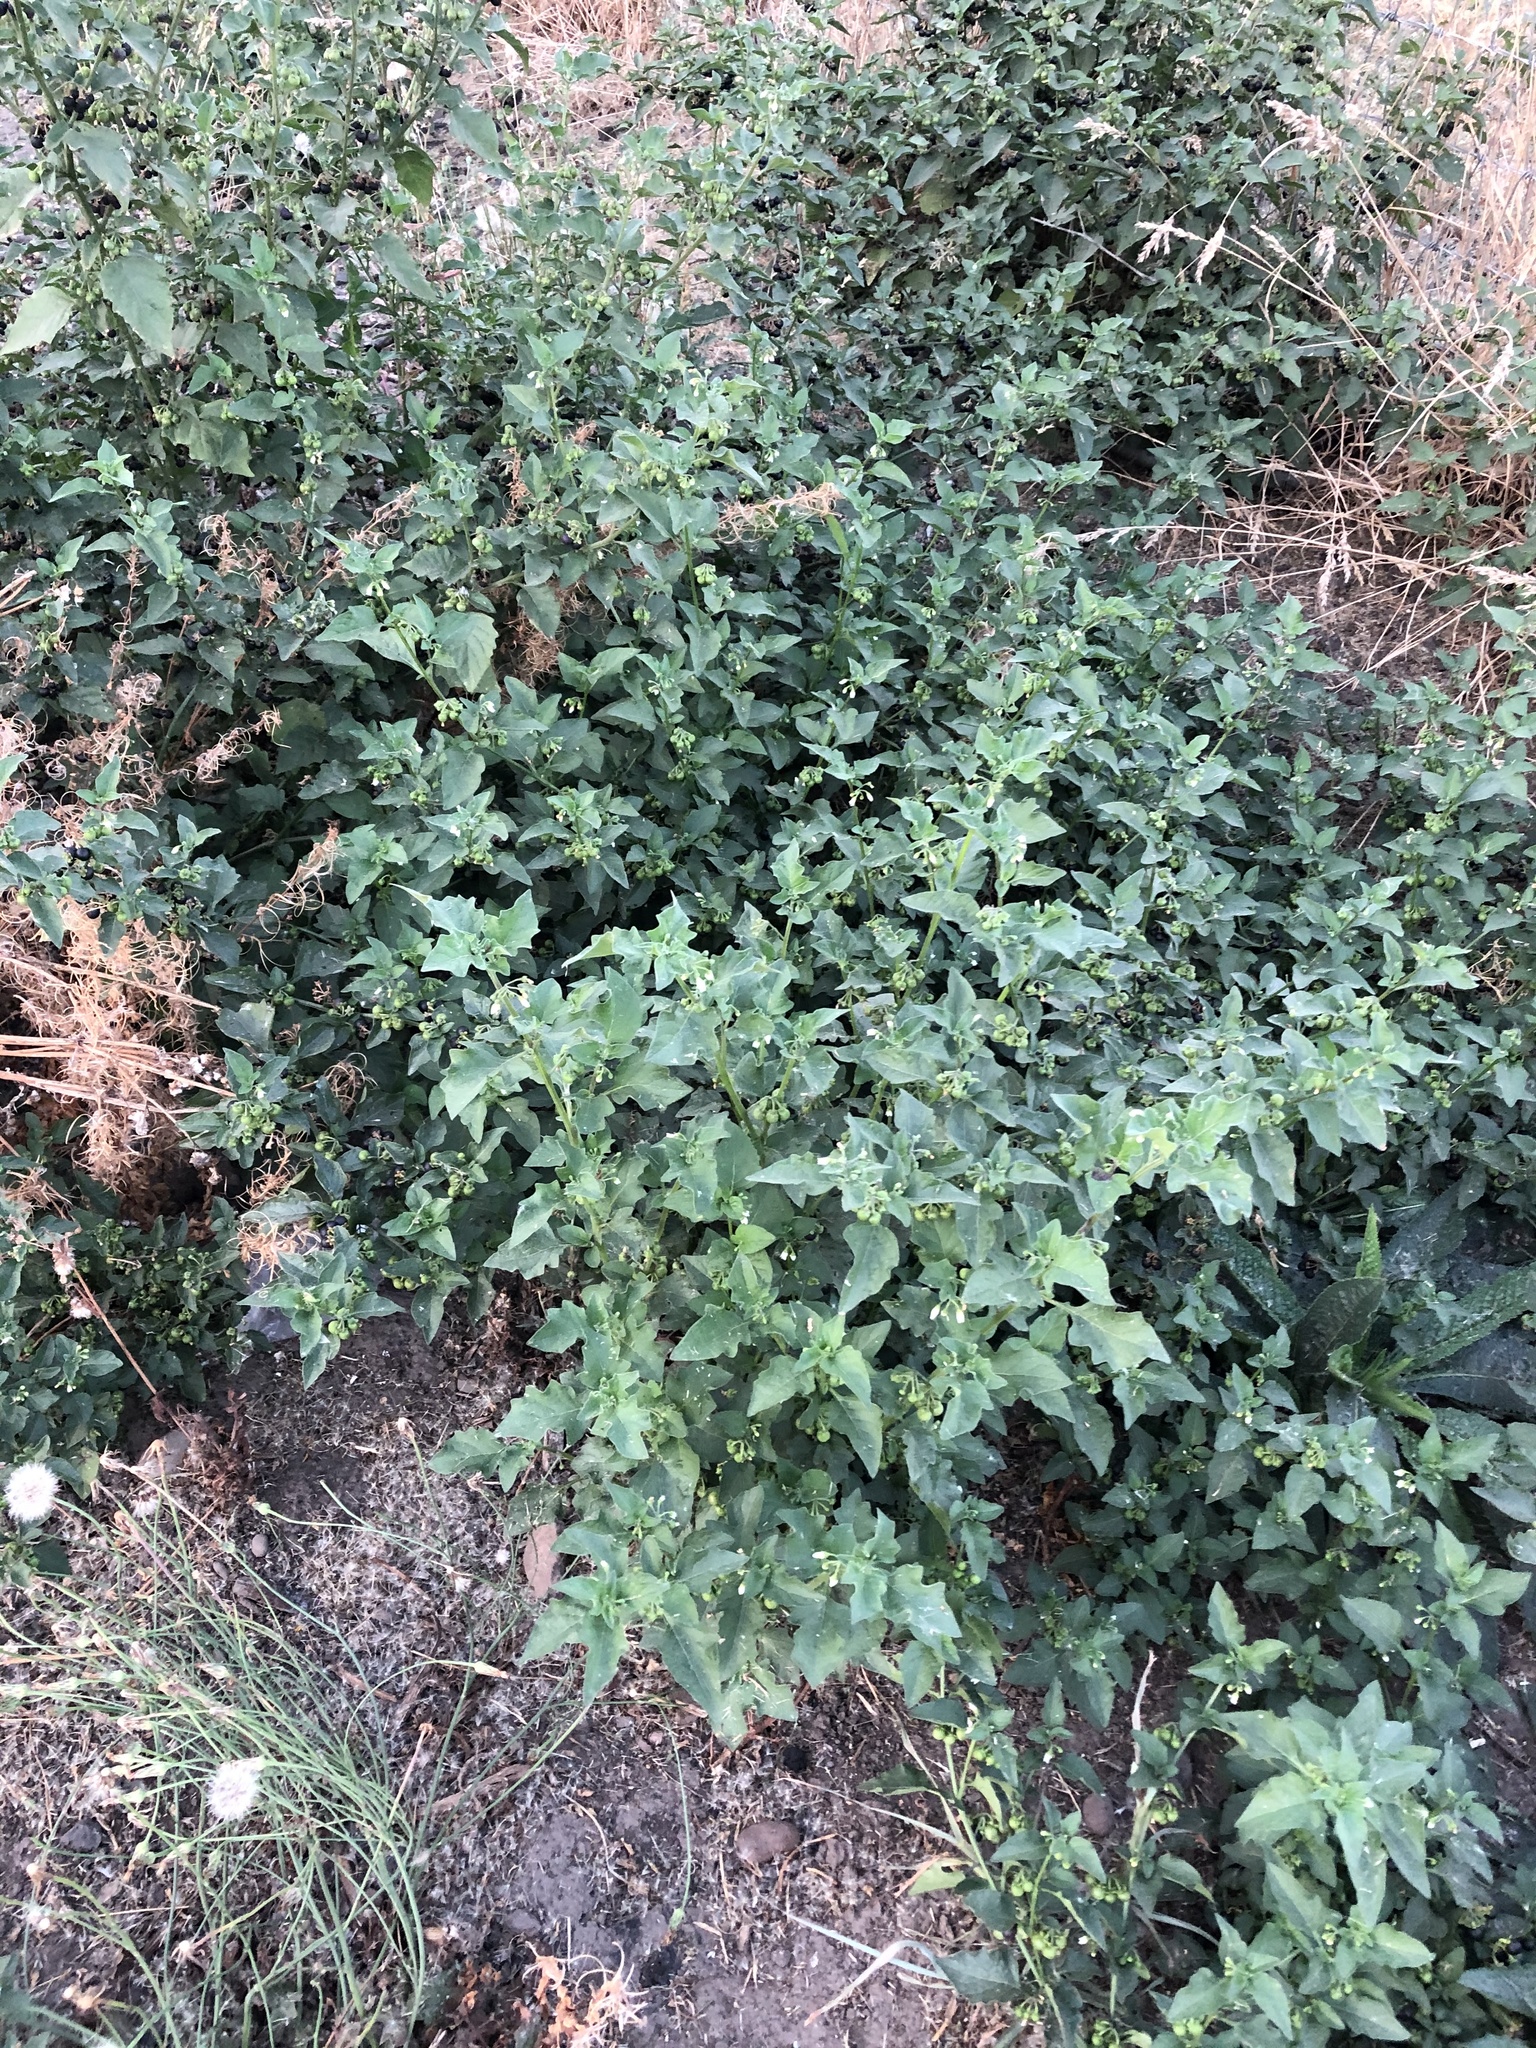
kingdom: Plantae
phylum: Tracheophyta
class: Magnoliopsida
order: Solanales
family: Solanaceae
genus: Solanum
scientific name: Solanum nigrum
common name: Black nightshade
